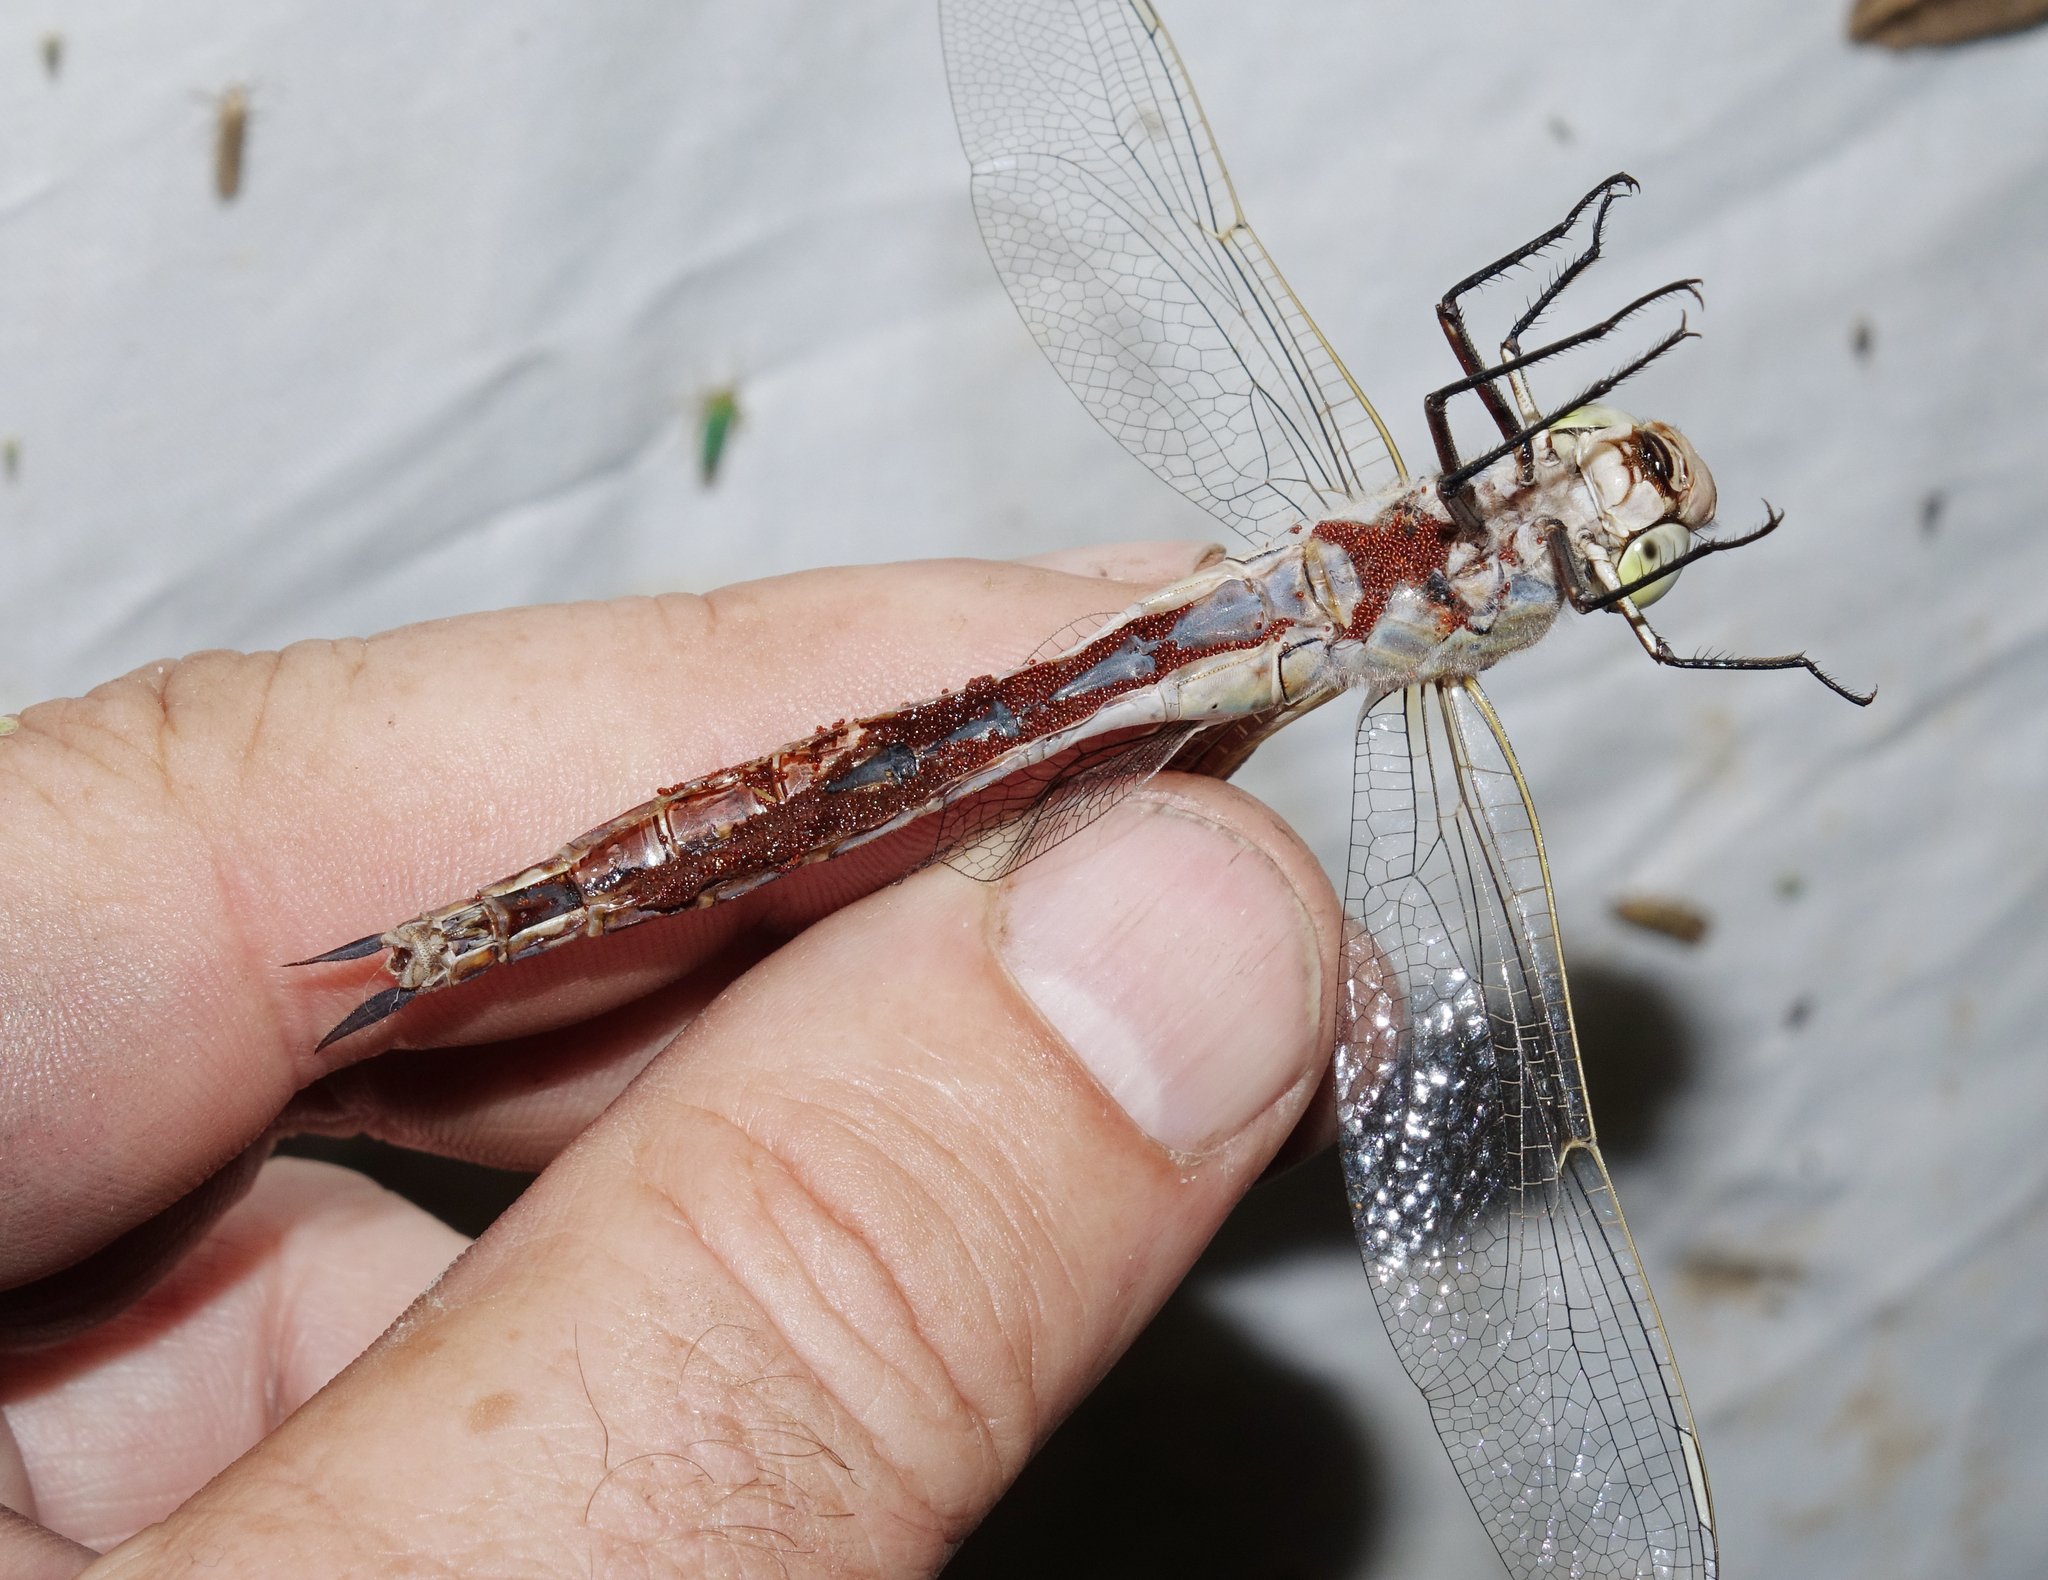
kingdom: Animalia
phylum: Arthropoda
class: Insecta
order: Odonata
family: Aeshnidae
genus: Anax
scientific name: Anax parthenope
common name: Lesser emperor
